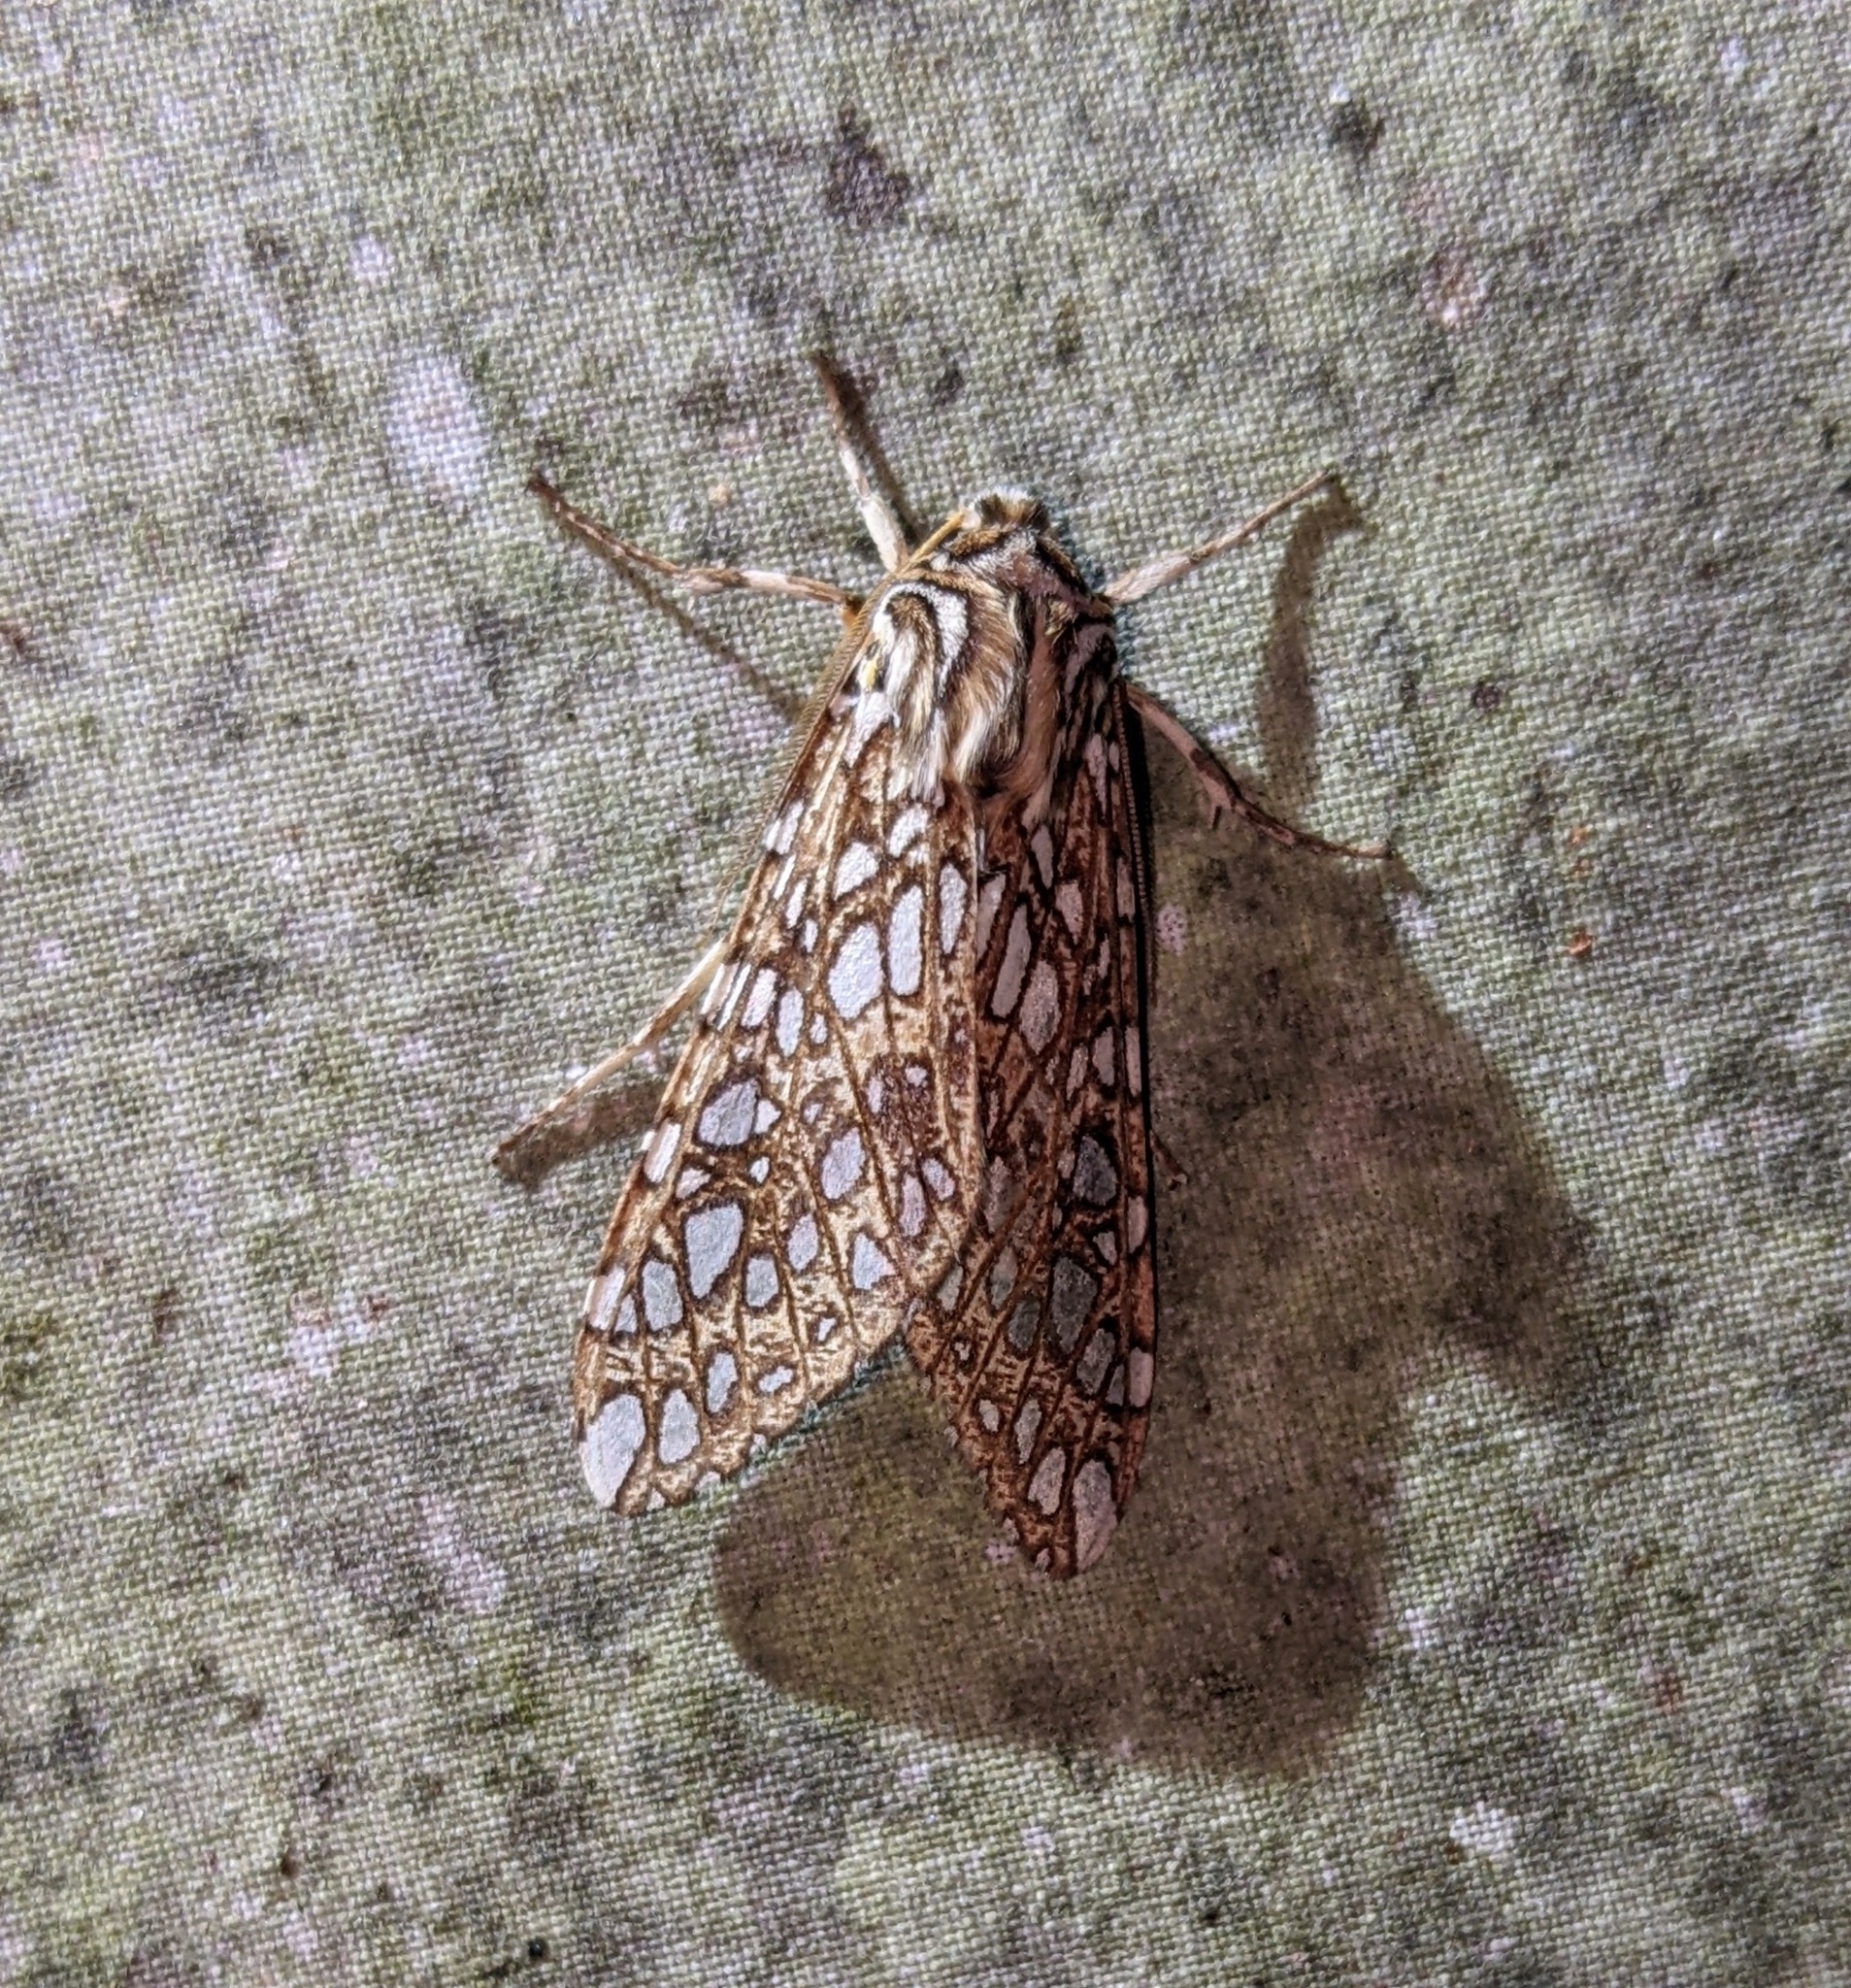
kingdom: Animalia
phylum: Arthropoda
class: Insecta
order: Lepidoptera
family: Erebidae
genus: Lophocampa
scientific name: Lophocampa atriceps
